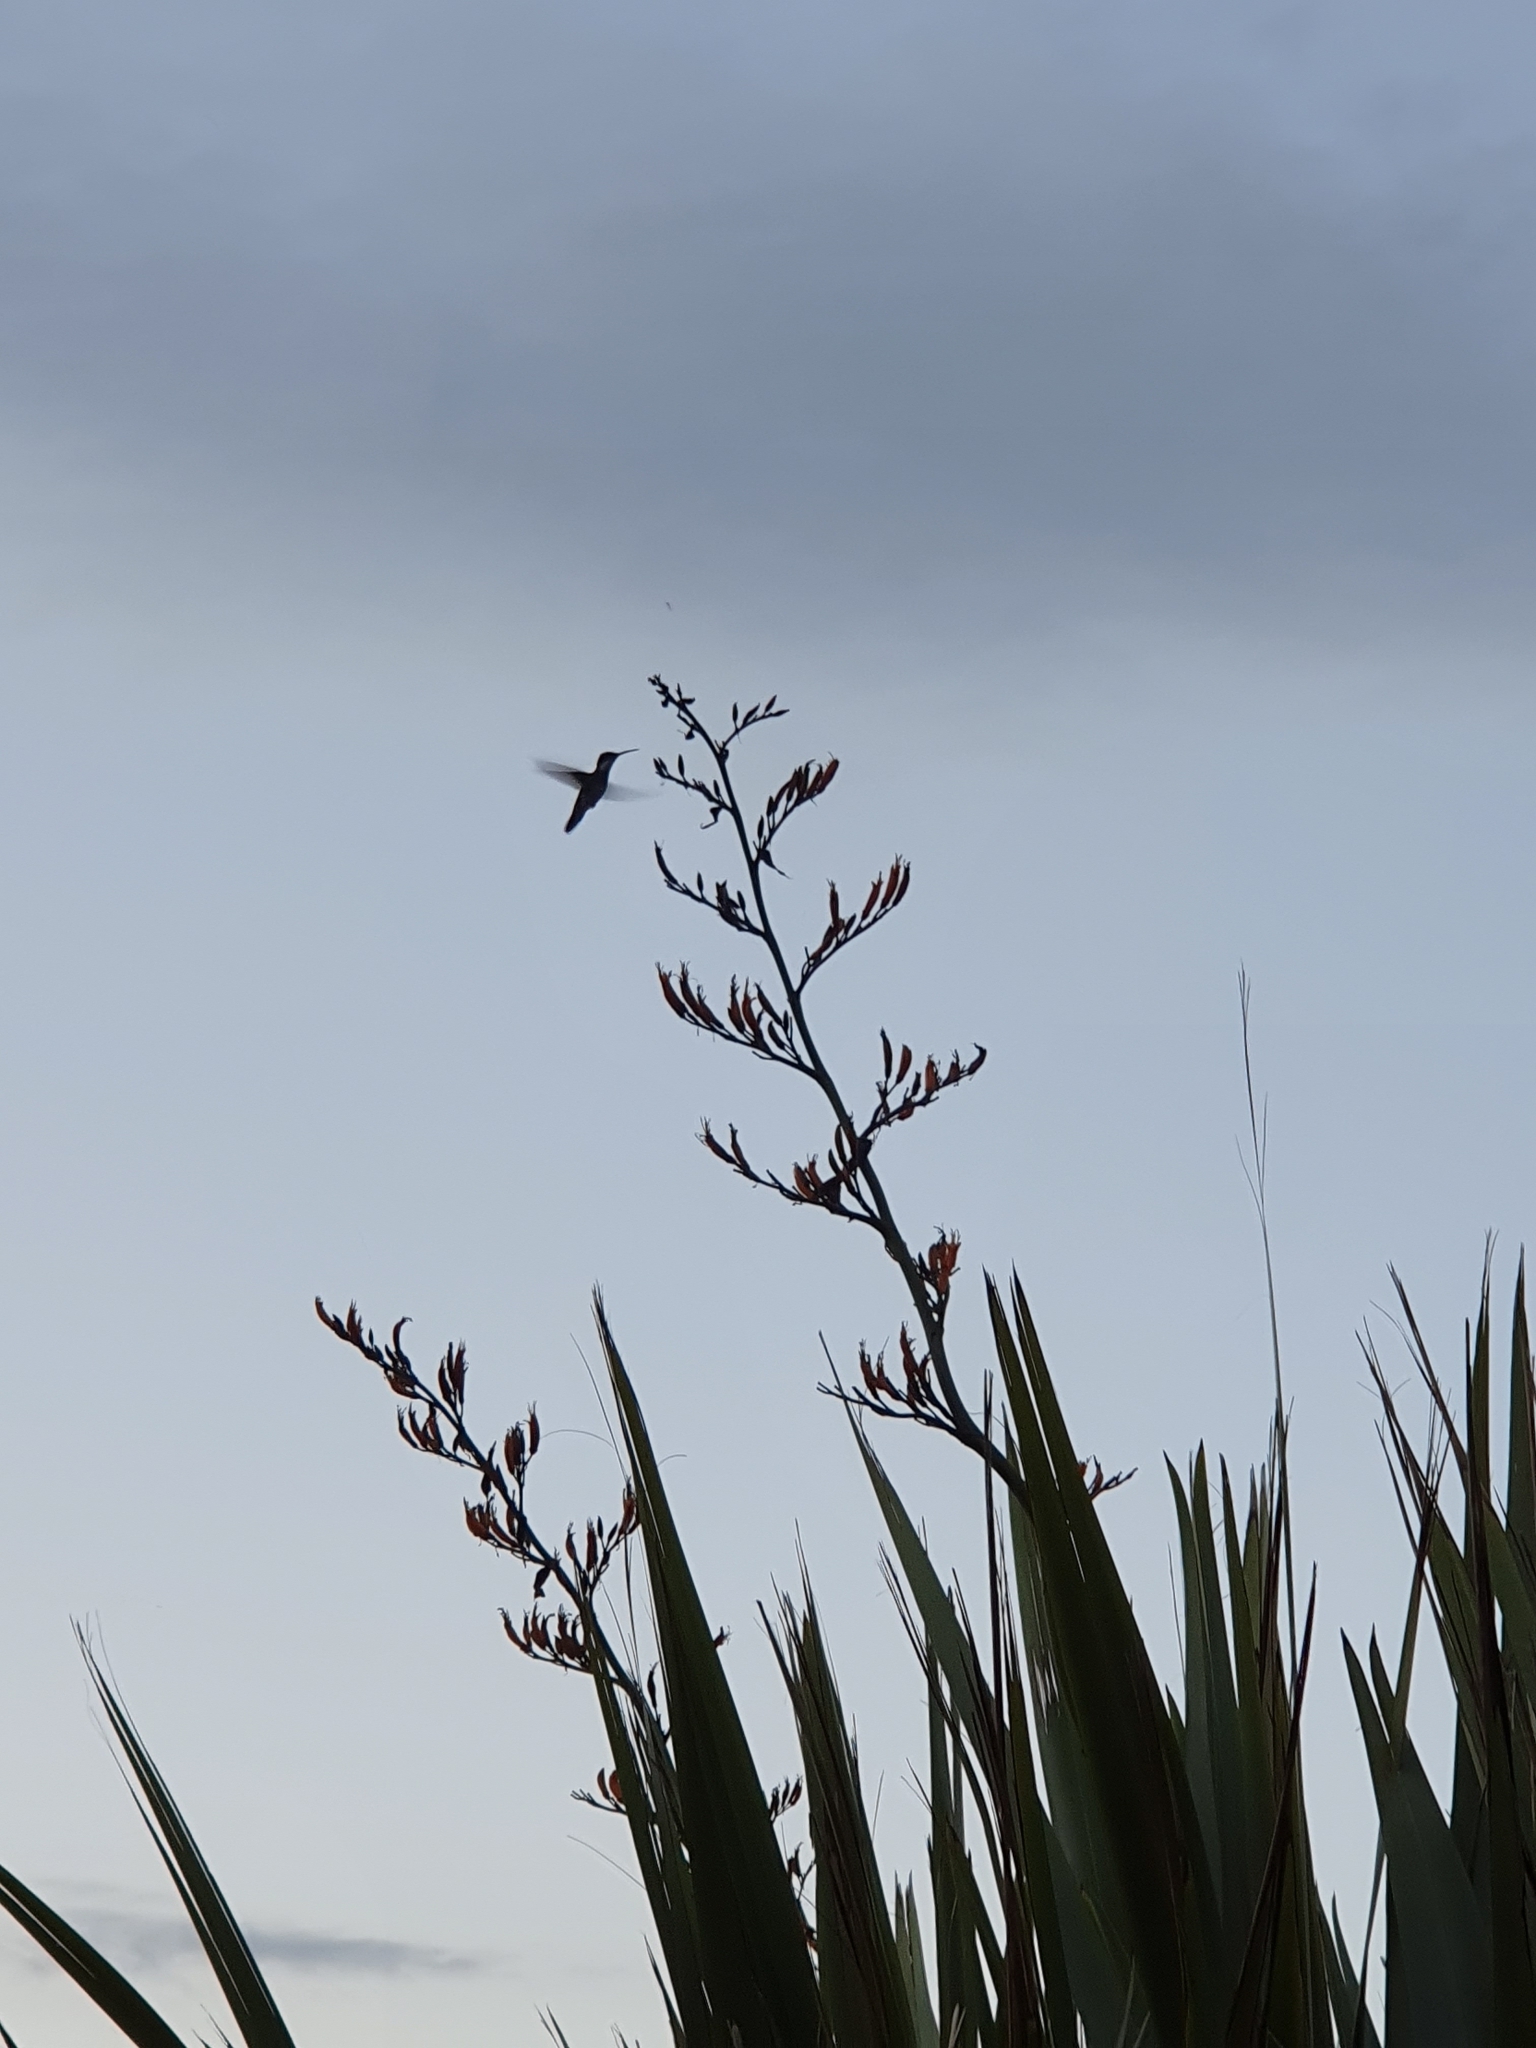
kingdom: Animalia
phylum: Chordata
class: Aves
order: Apodiformes
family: Trochilidae
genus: Leucochloris
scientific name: Leucochloris albicollis
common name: White-throated hummingbird
